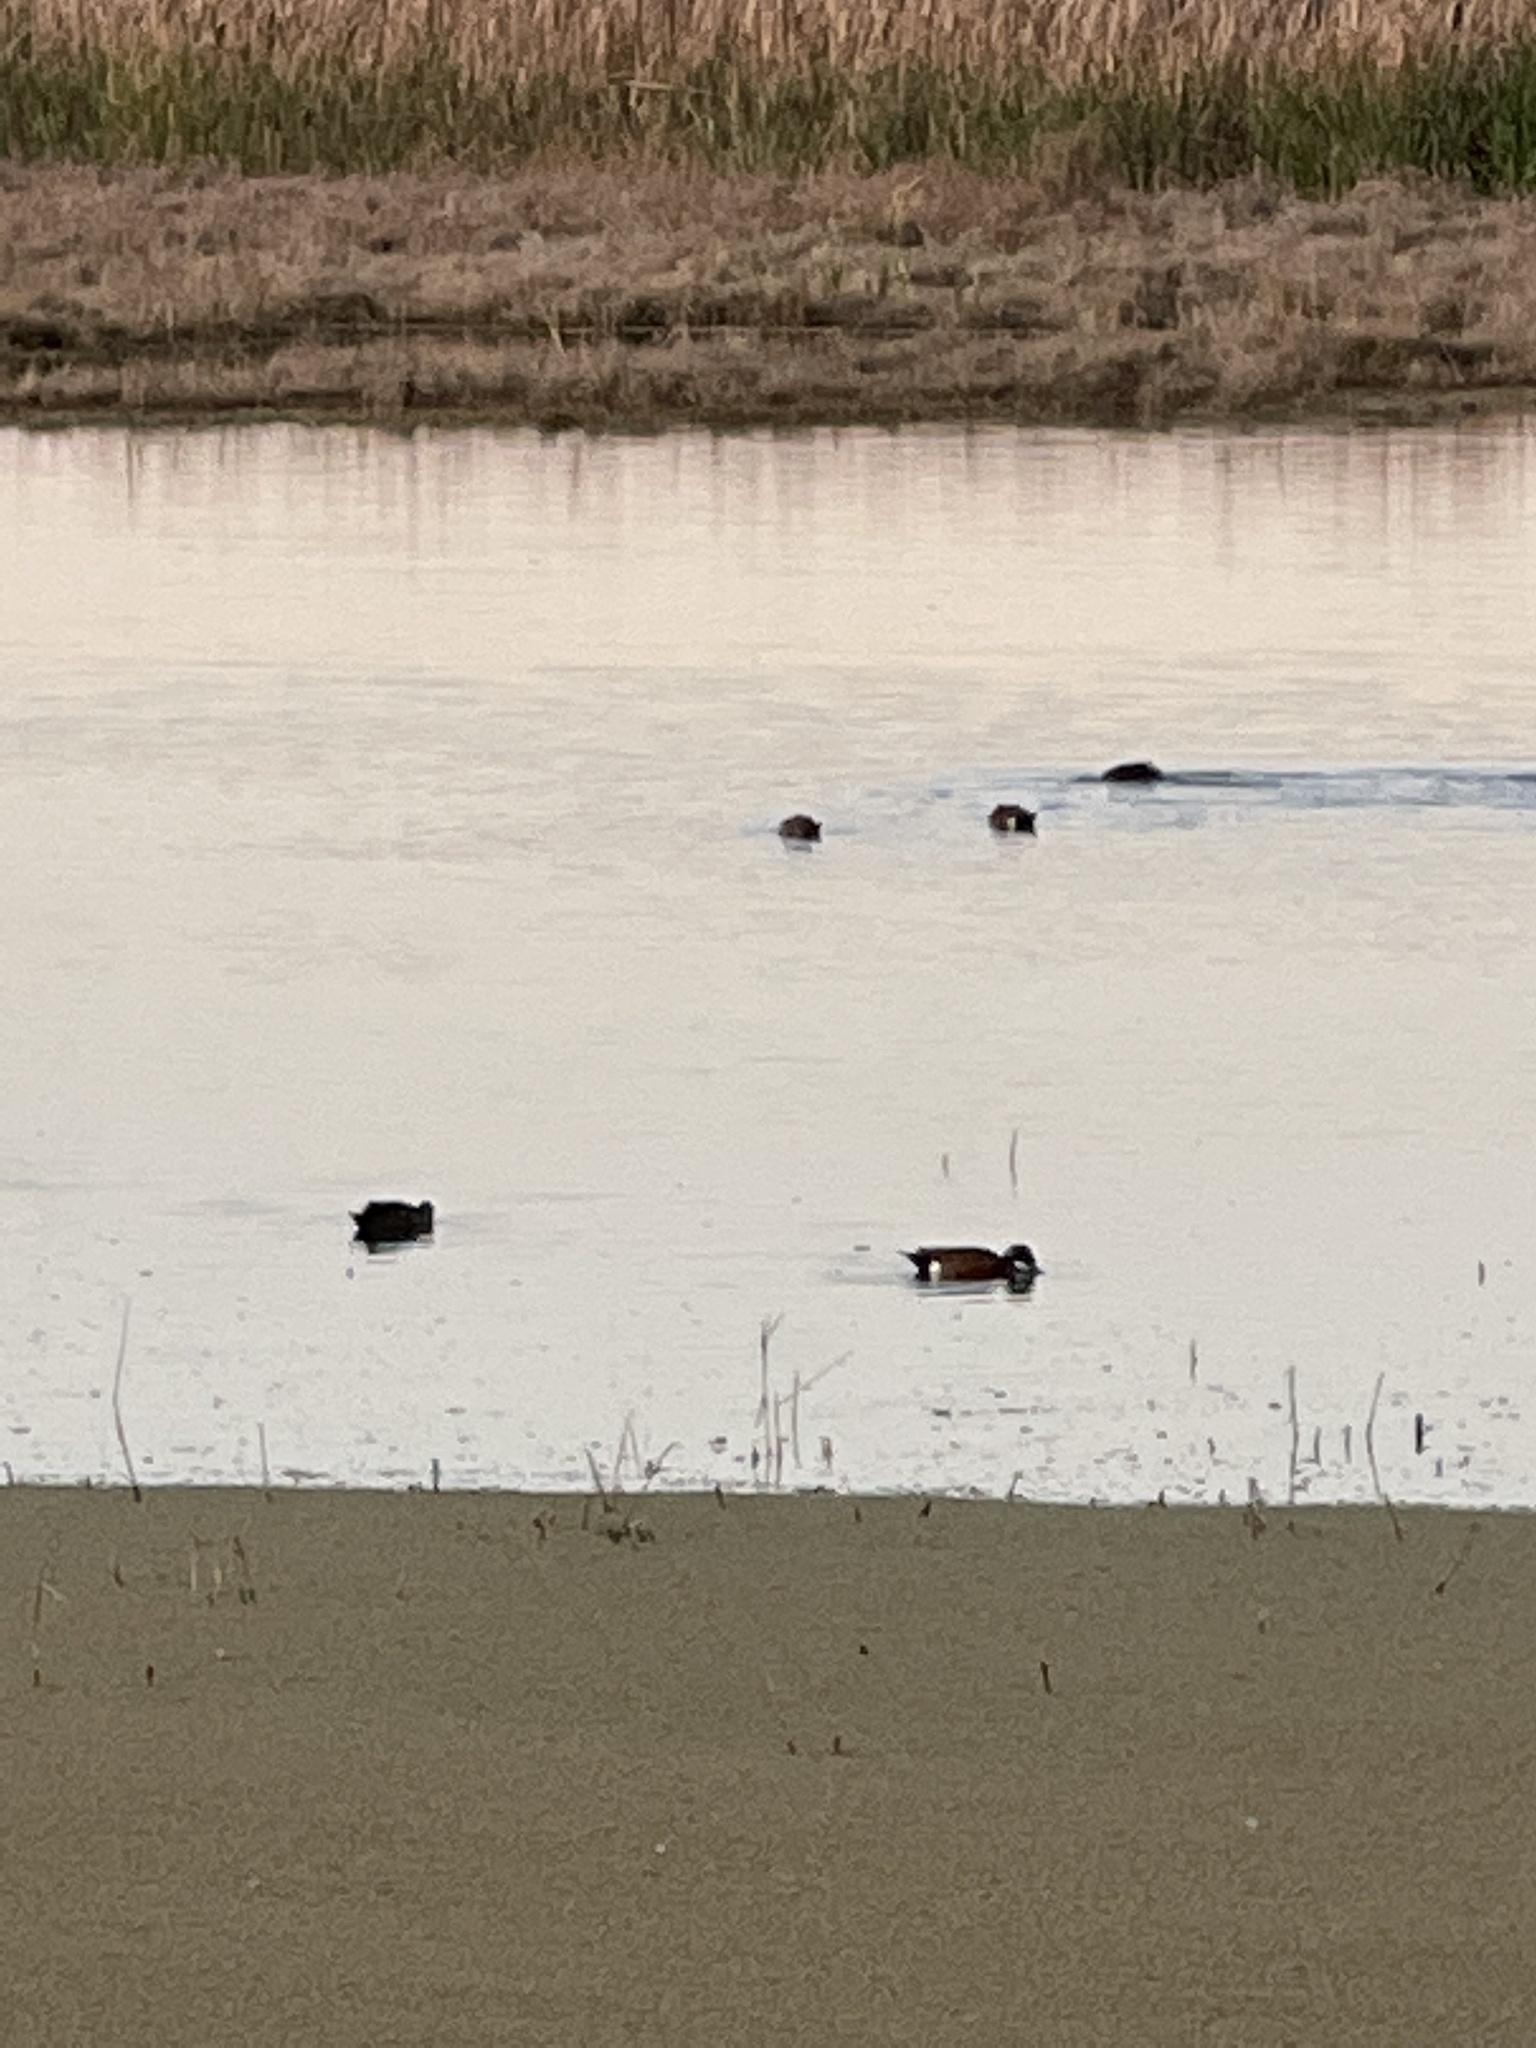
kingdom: Animalia
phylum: Chordata
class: Aves
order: Anseriformes
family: Anatidae
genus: Anas
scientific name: Anas castanea
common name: Chestnut teal
